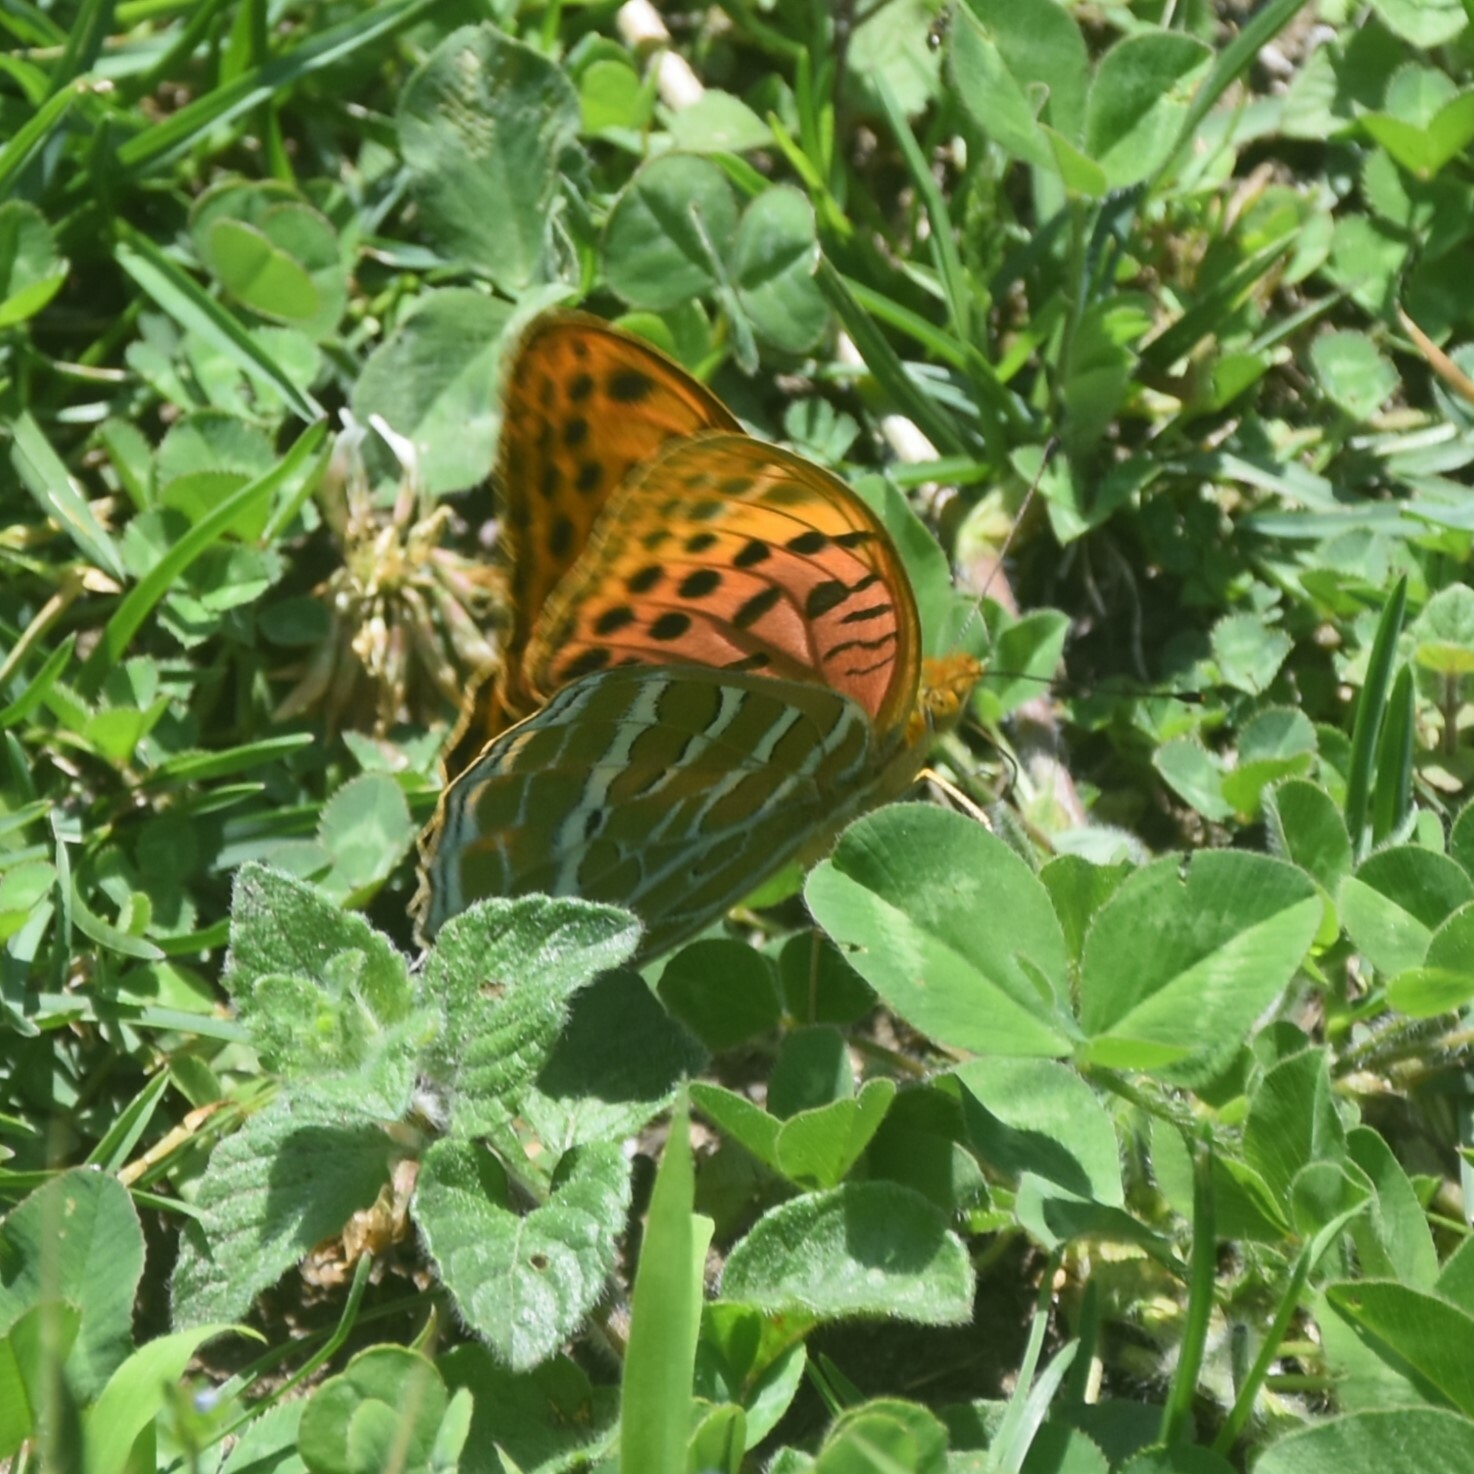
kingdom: Animalia
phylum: Arthropoda
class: Insecta
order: Lepidoptera
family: Nymphalidae
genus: Childrena
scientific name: Childrena childreni
